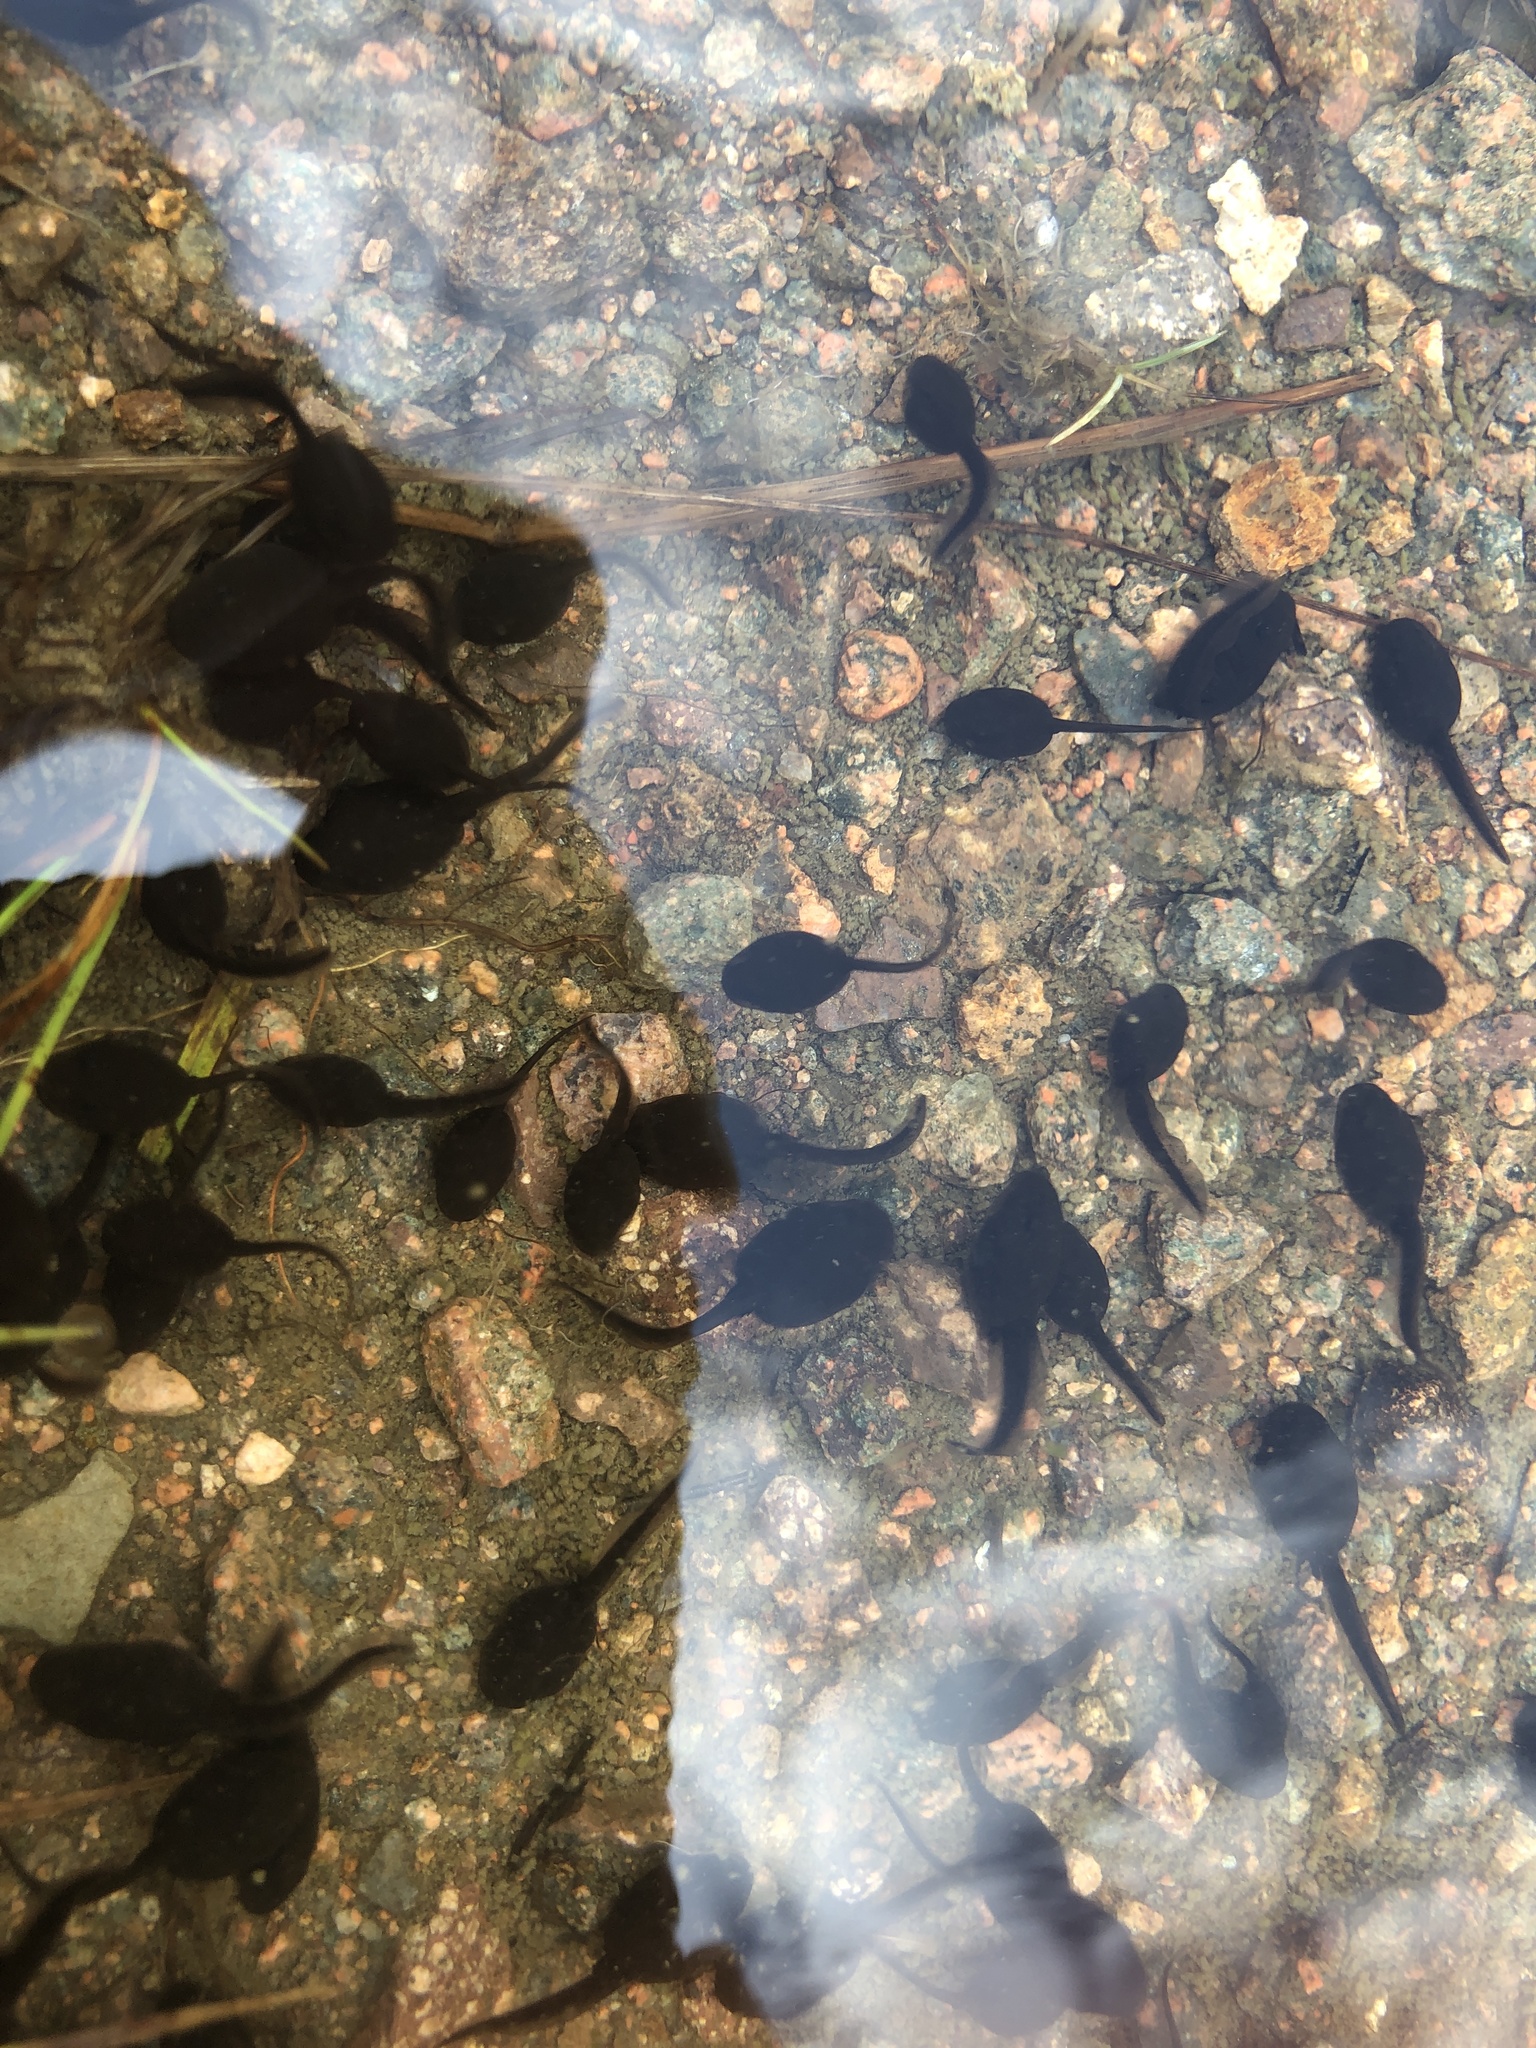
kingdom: Animalia
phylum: Chordata
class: Amphibia
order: Anura
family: Bufonidae
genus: Bufo
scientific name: Bufo bufo
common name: Common toad
